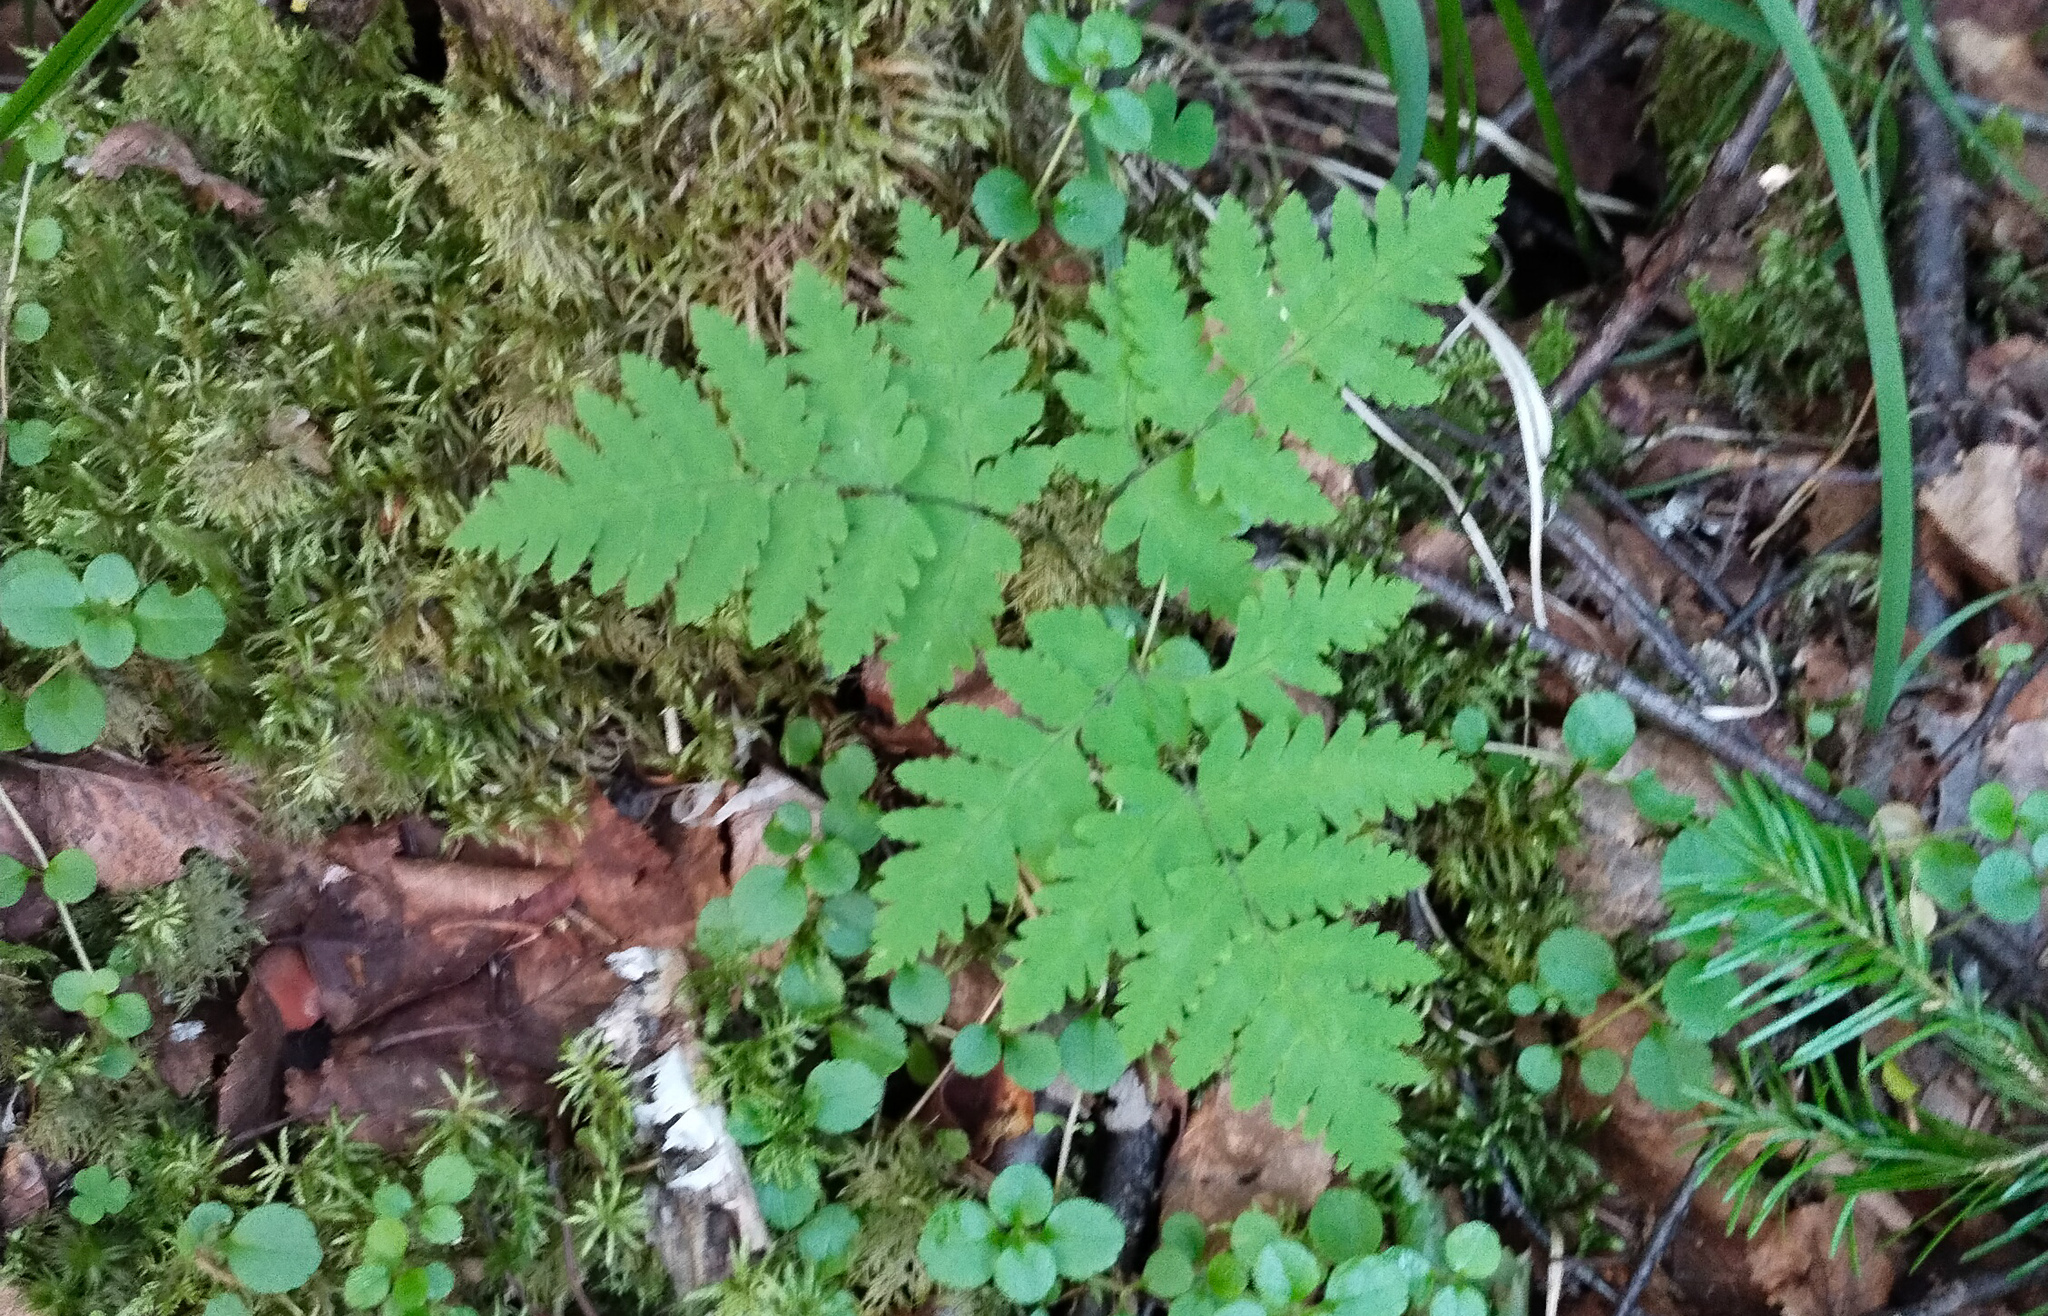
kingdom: Plantae
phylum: Tracheophyta
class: Polypodiopsida
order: Polypodiales
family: Cystopteridaceae
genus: Gymnocarpium
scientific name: Gymnocarpium dryopteris
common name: Oak fern
